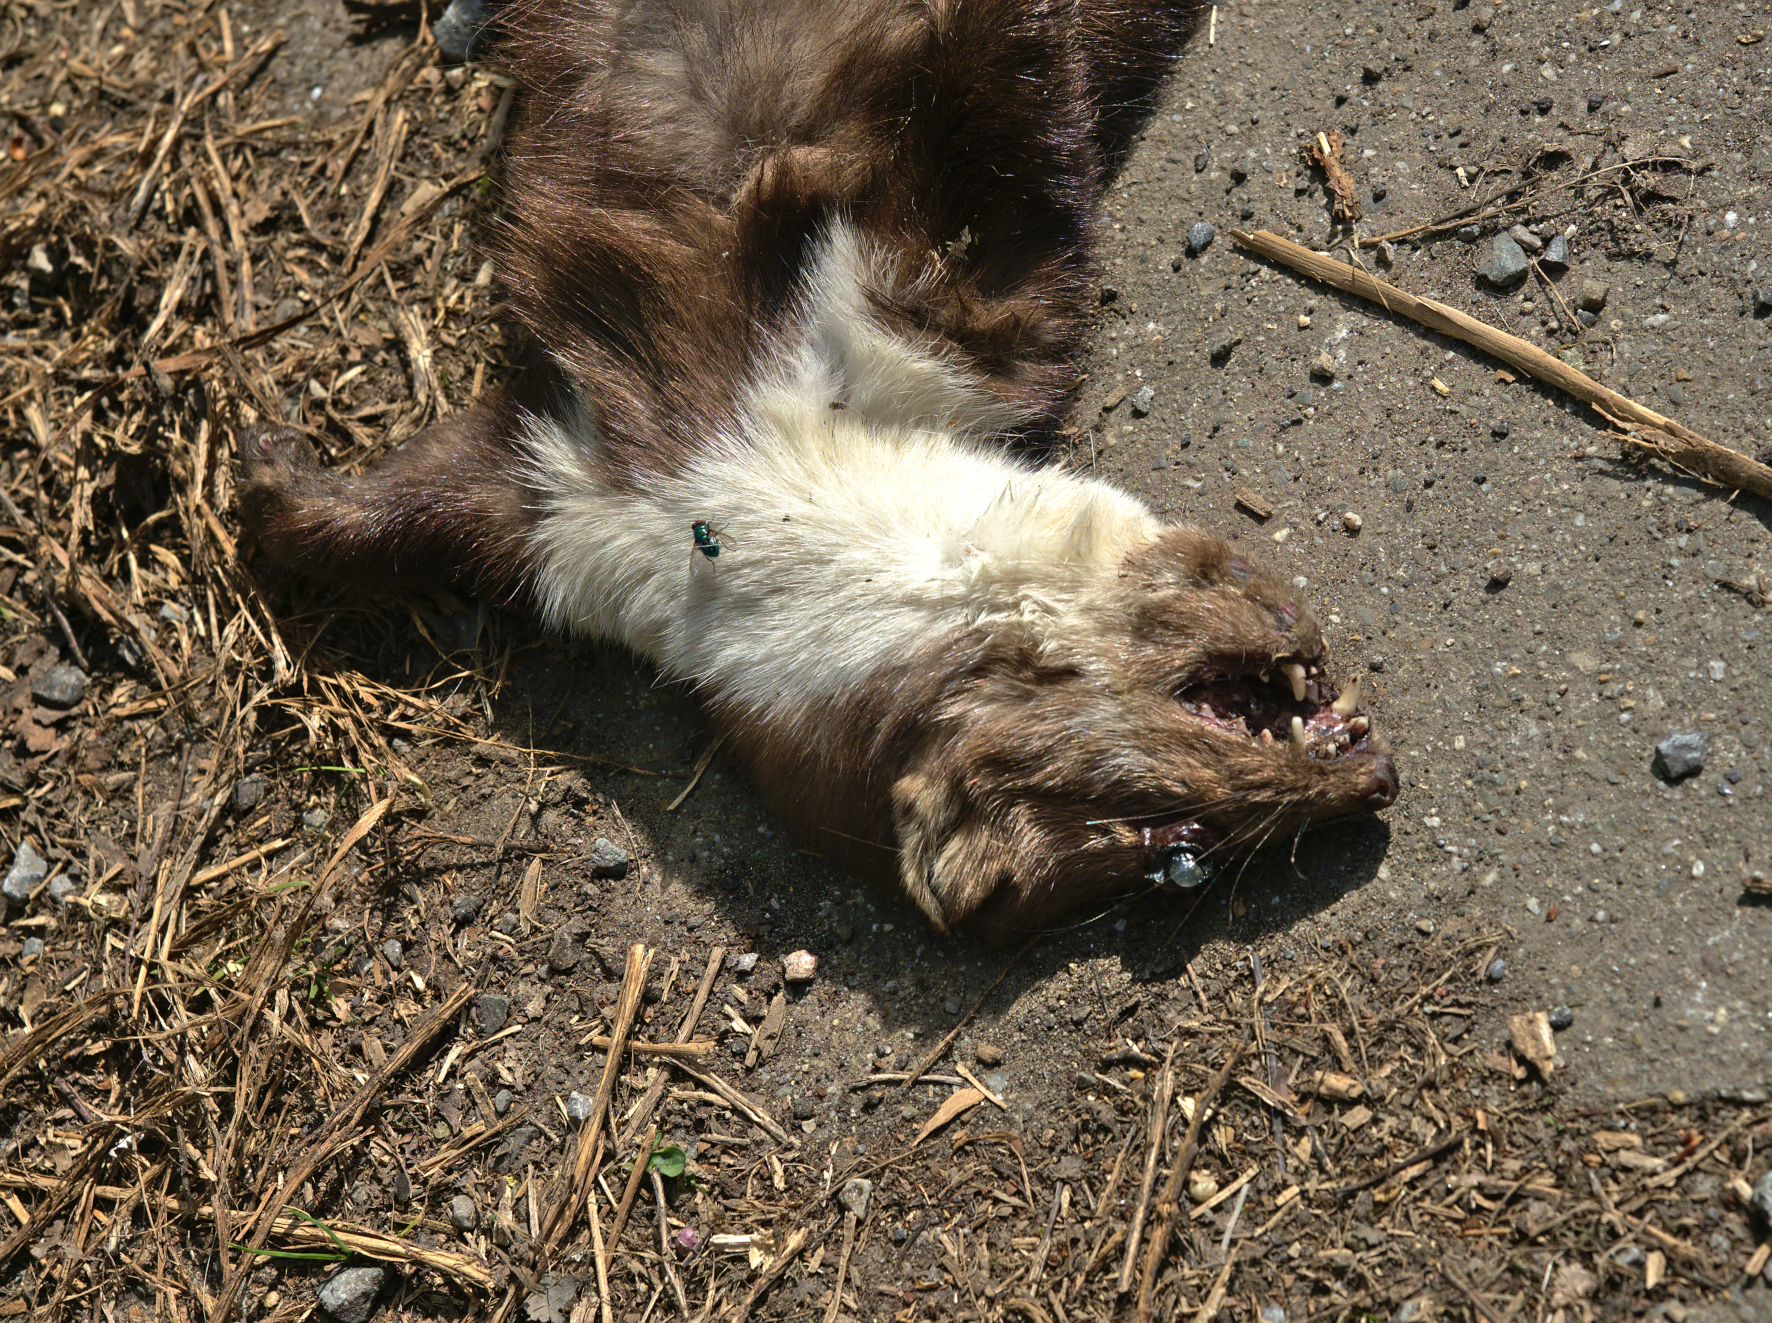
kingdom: Animalia
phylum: Chordata
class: Mammalia
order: Carnivora
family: Mustelidae
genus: Martes
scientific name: Martes foina
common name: Beech marten
